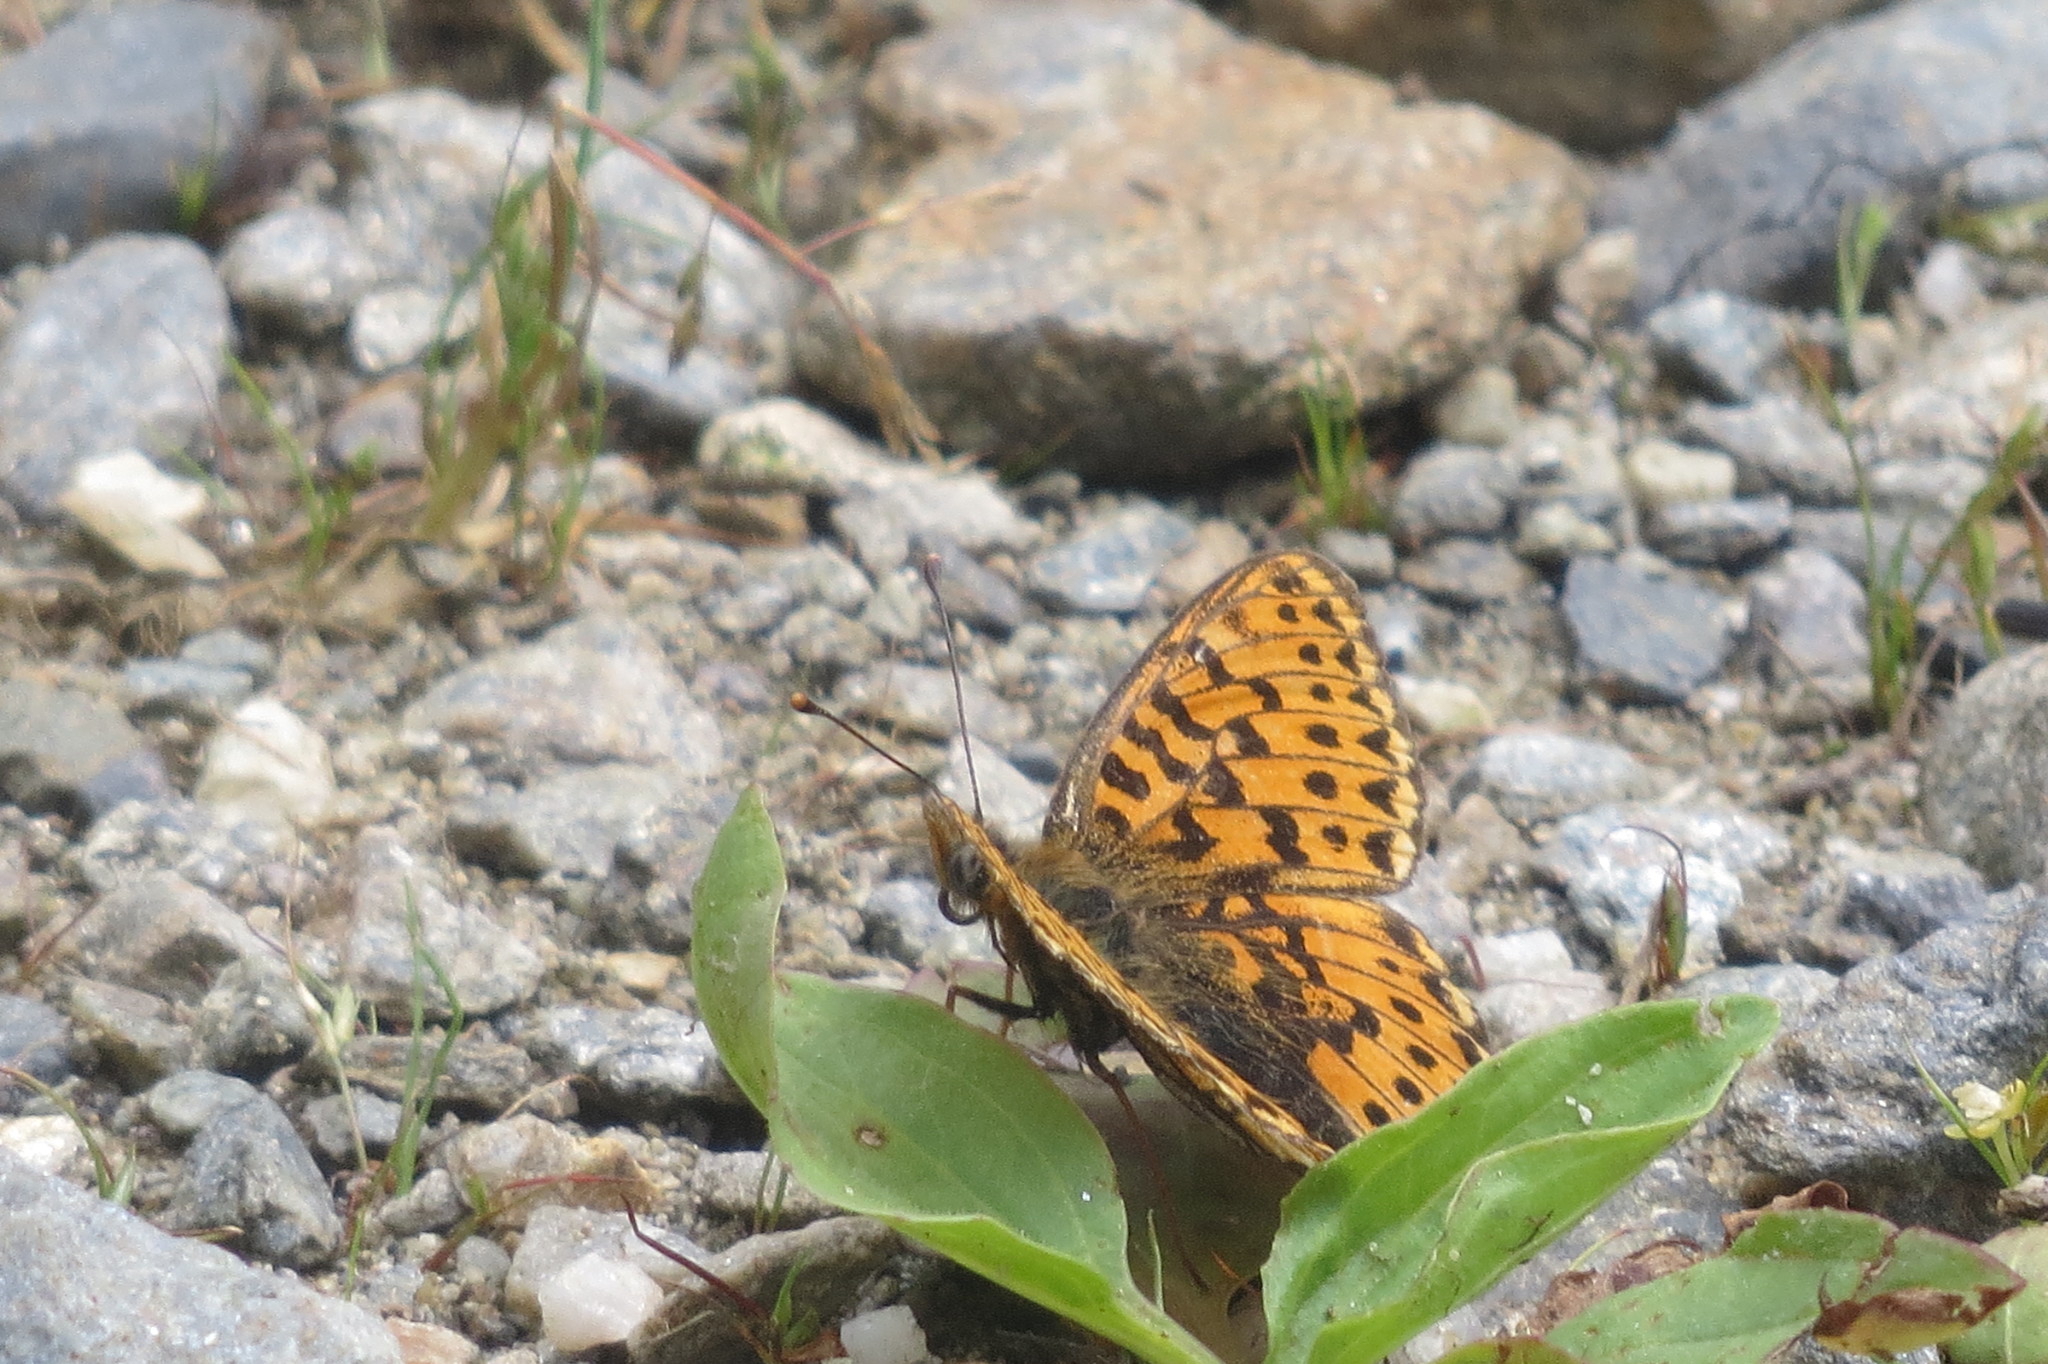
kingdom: Animalia
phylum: Arthropoda
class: Insecta
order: Lepidoptera
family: Nymphalidae
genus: Clossiana
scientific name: Clossiana euphrosyne
